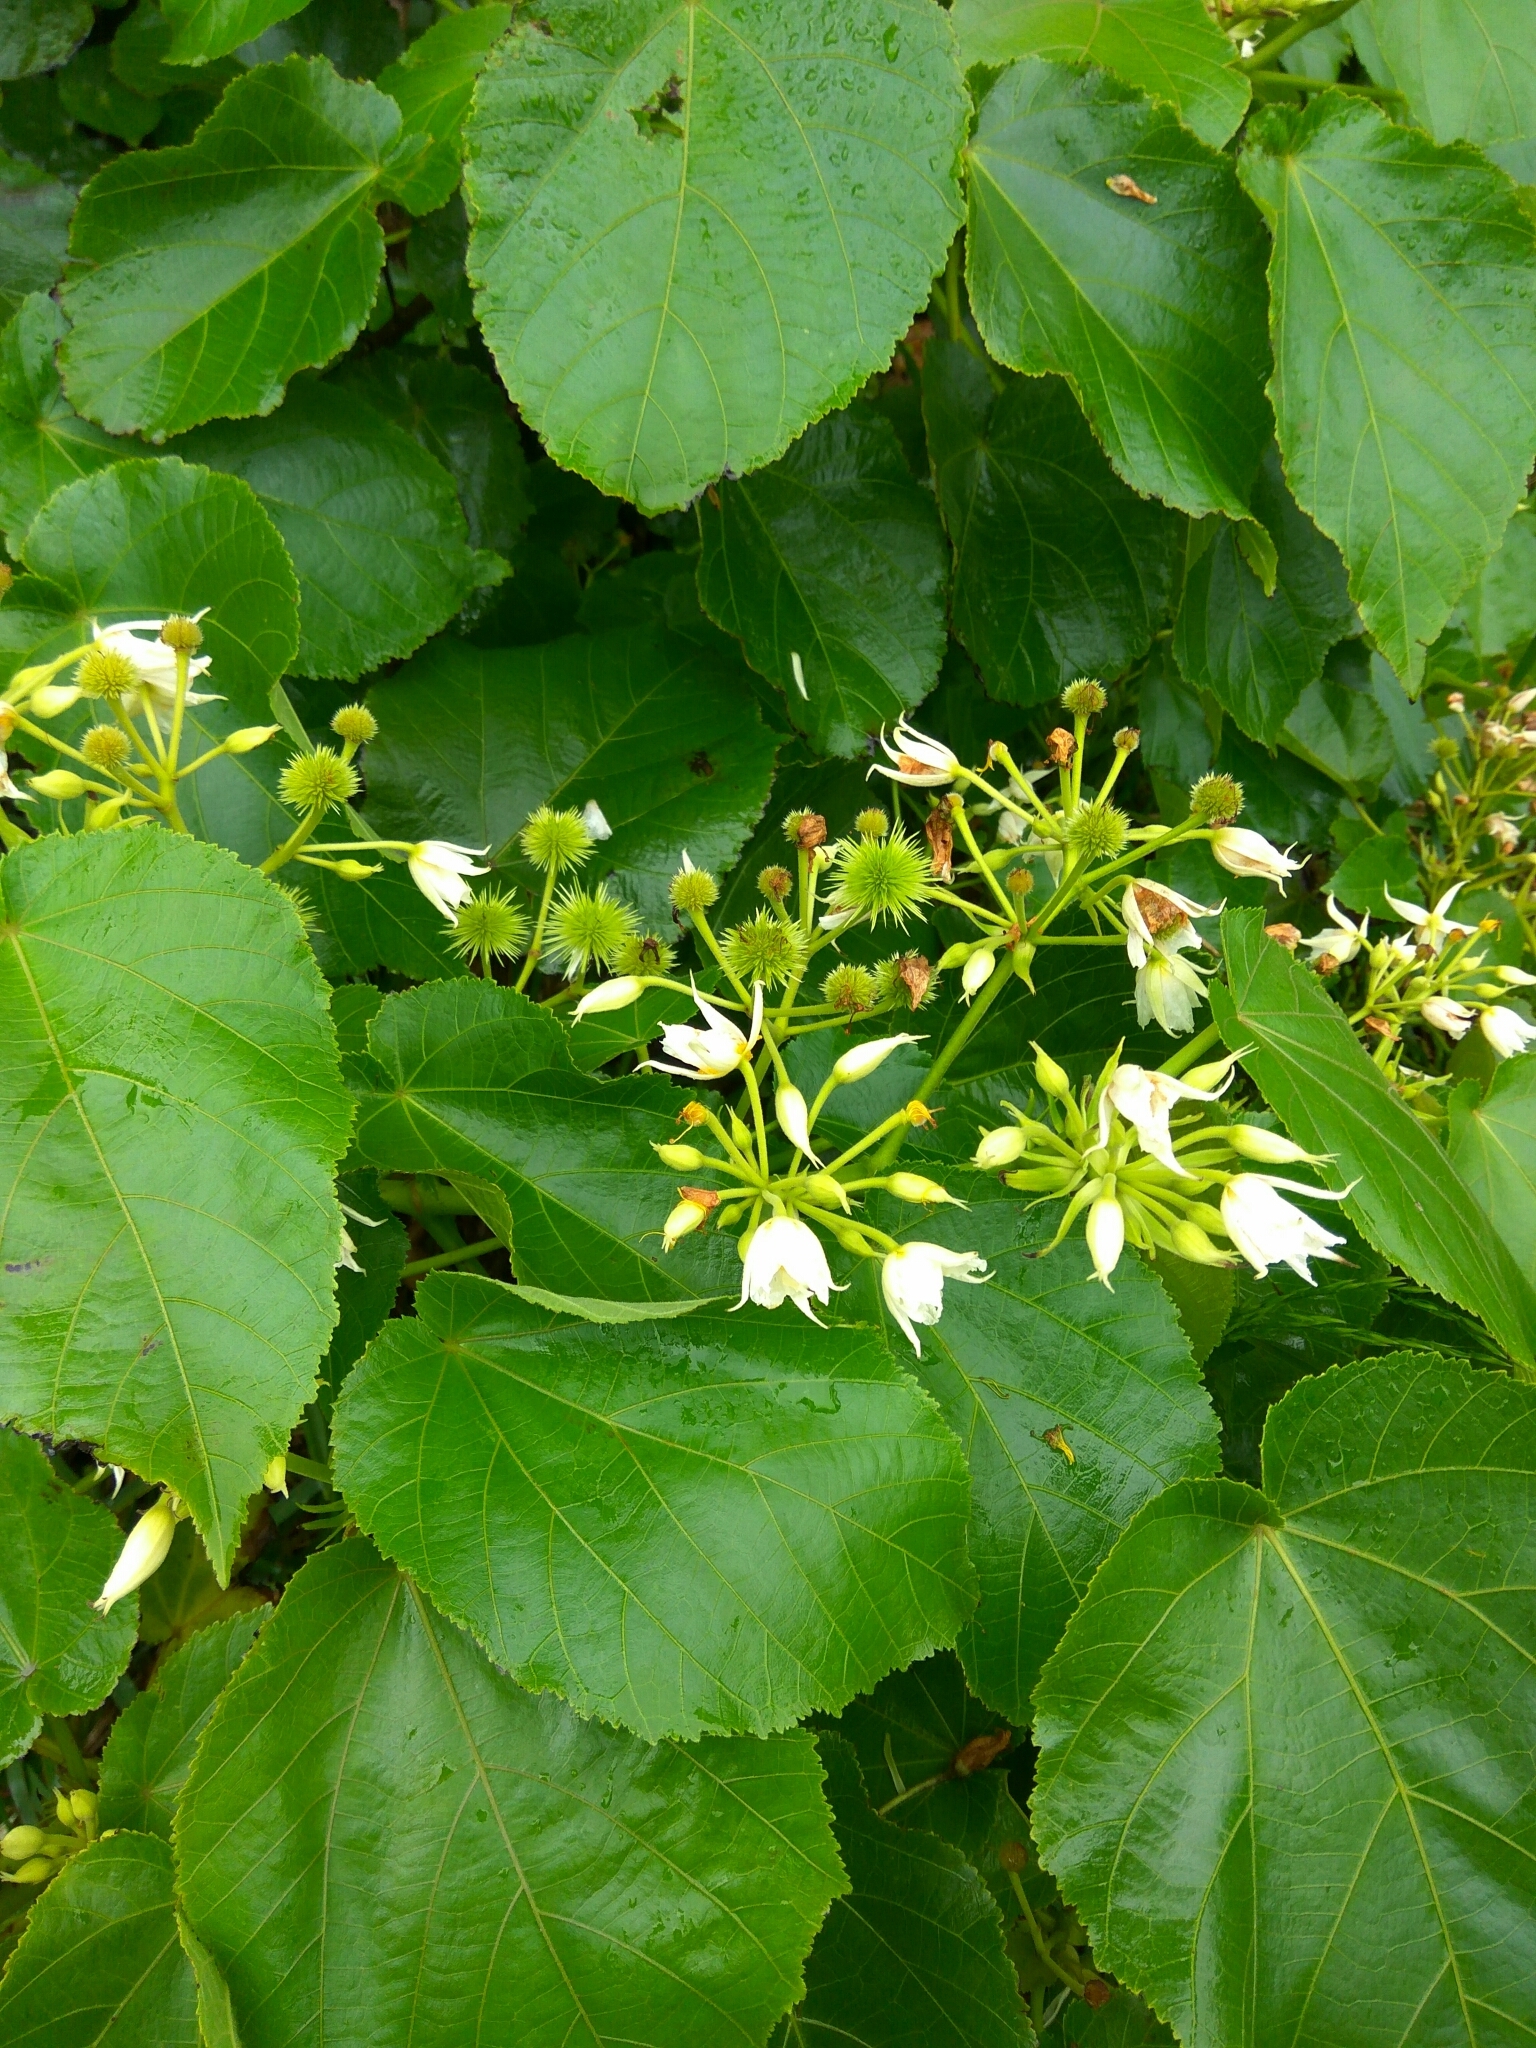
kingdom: Plantae
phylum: Tracheophyta
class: Magnoliopsida
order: Malvales
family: Malvaceae
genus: Entelea
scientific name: Entelea arborescens
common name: New zealand-mulberry
